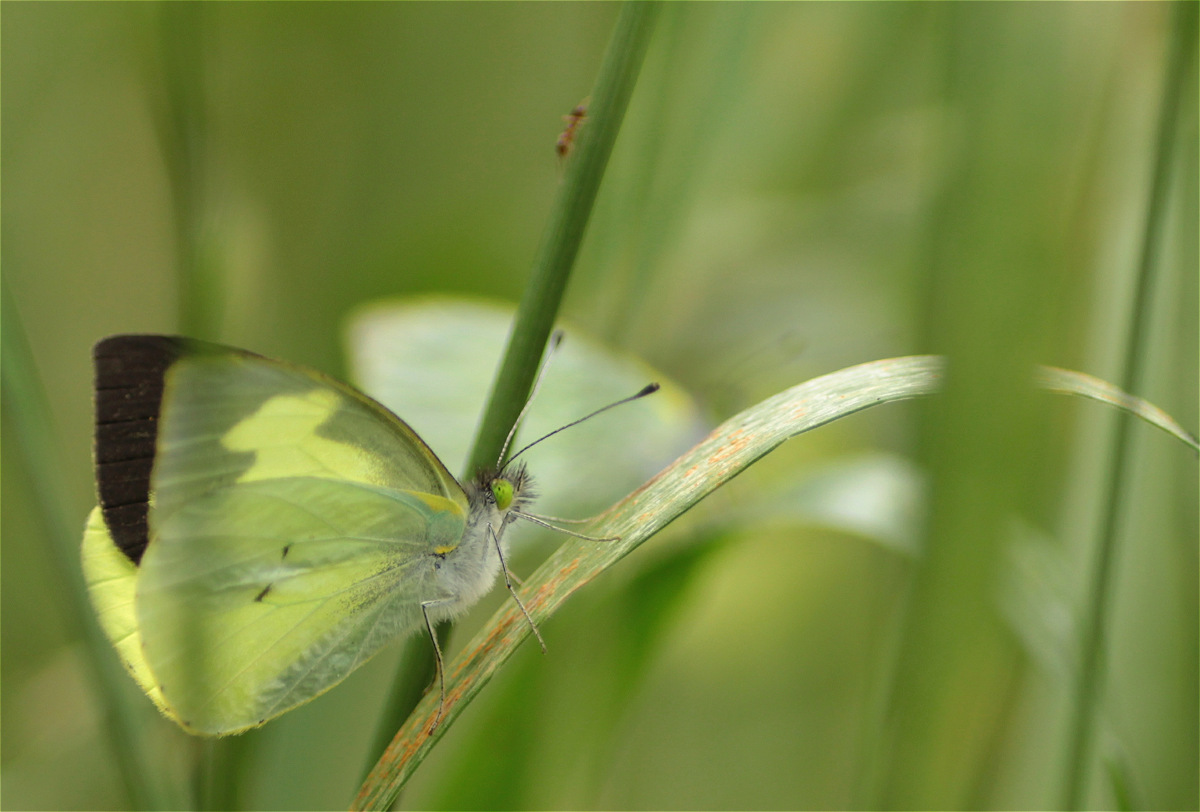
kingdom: Animalia
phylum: Arthropoda
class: Insecta
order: Lepidoptera
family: Pieridae
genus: Leptophobia
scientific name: Leptophobia eleone
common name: Silky wanderer
